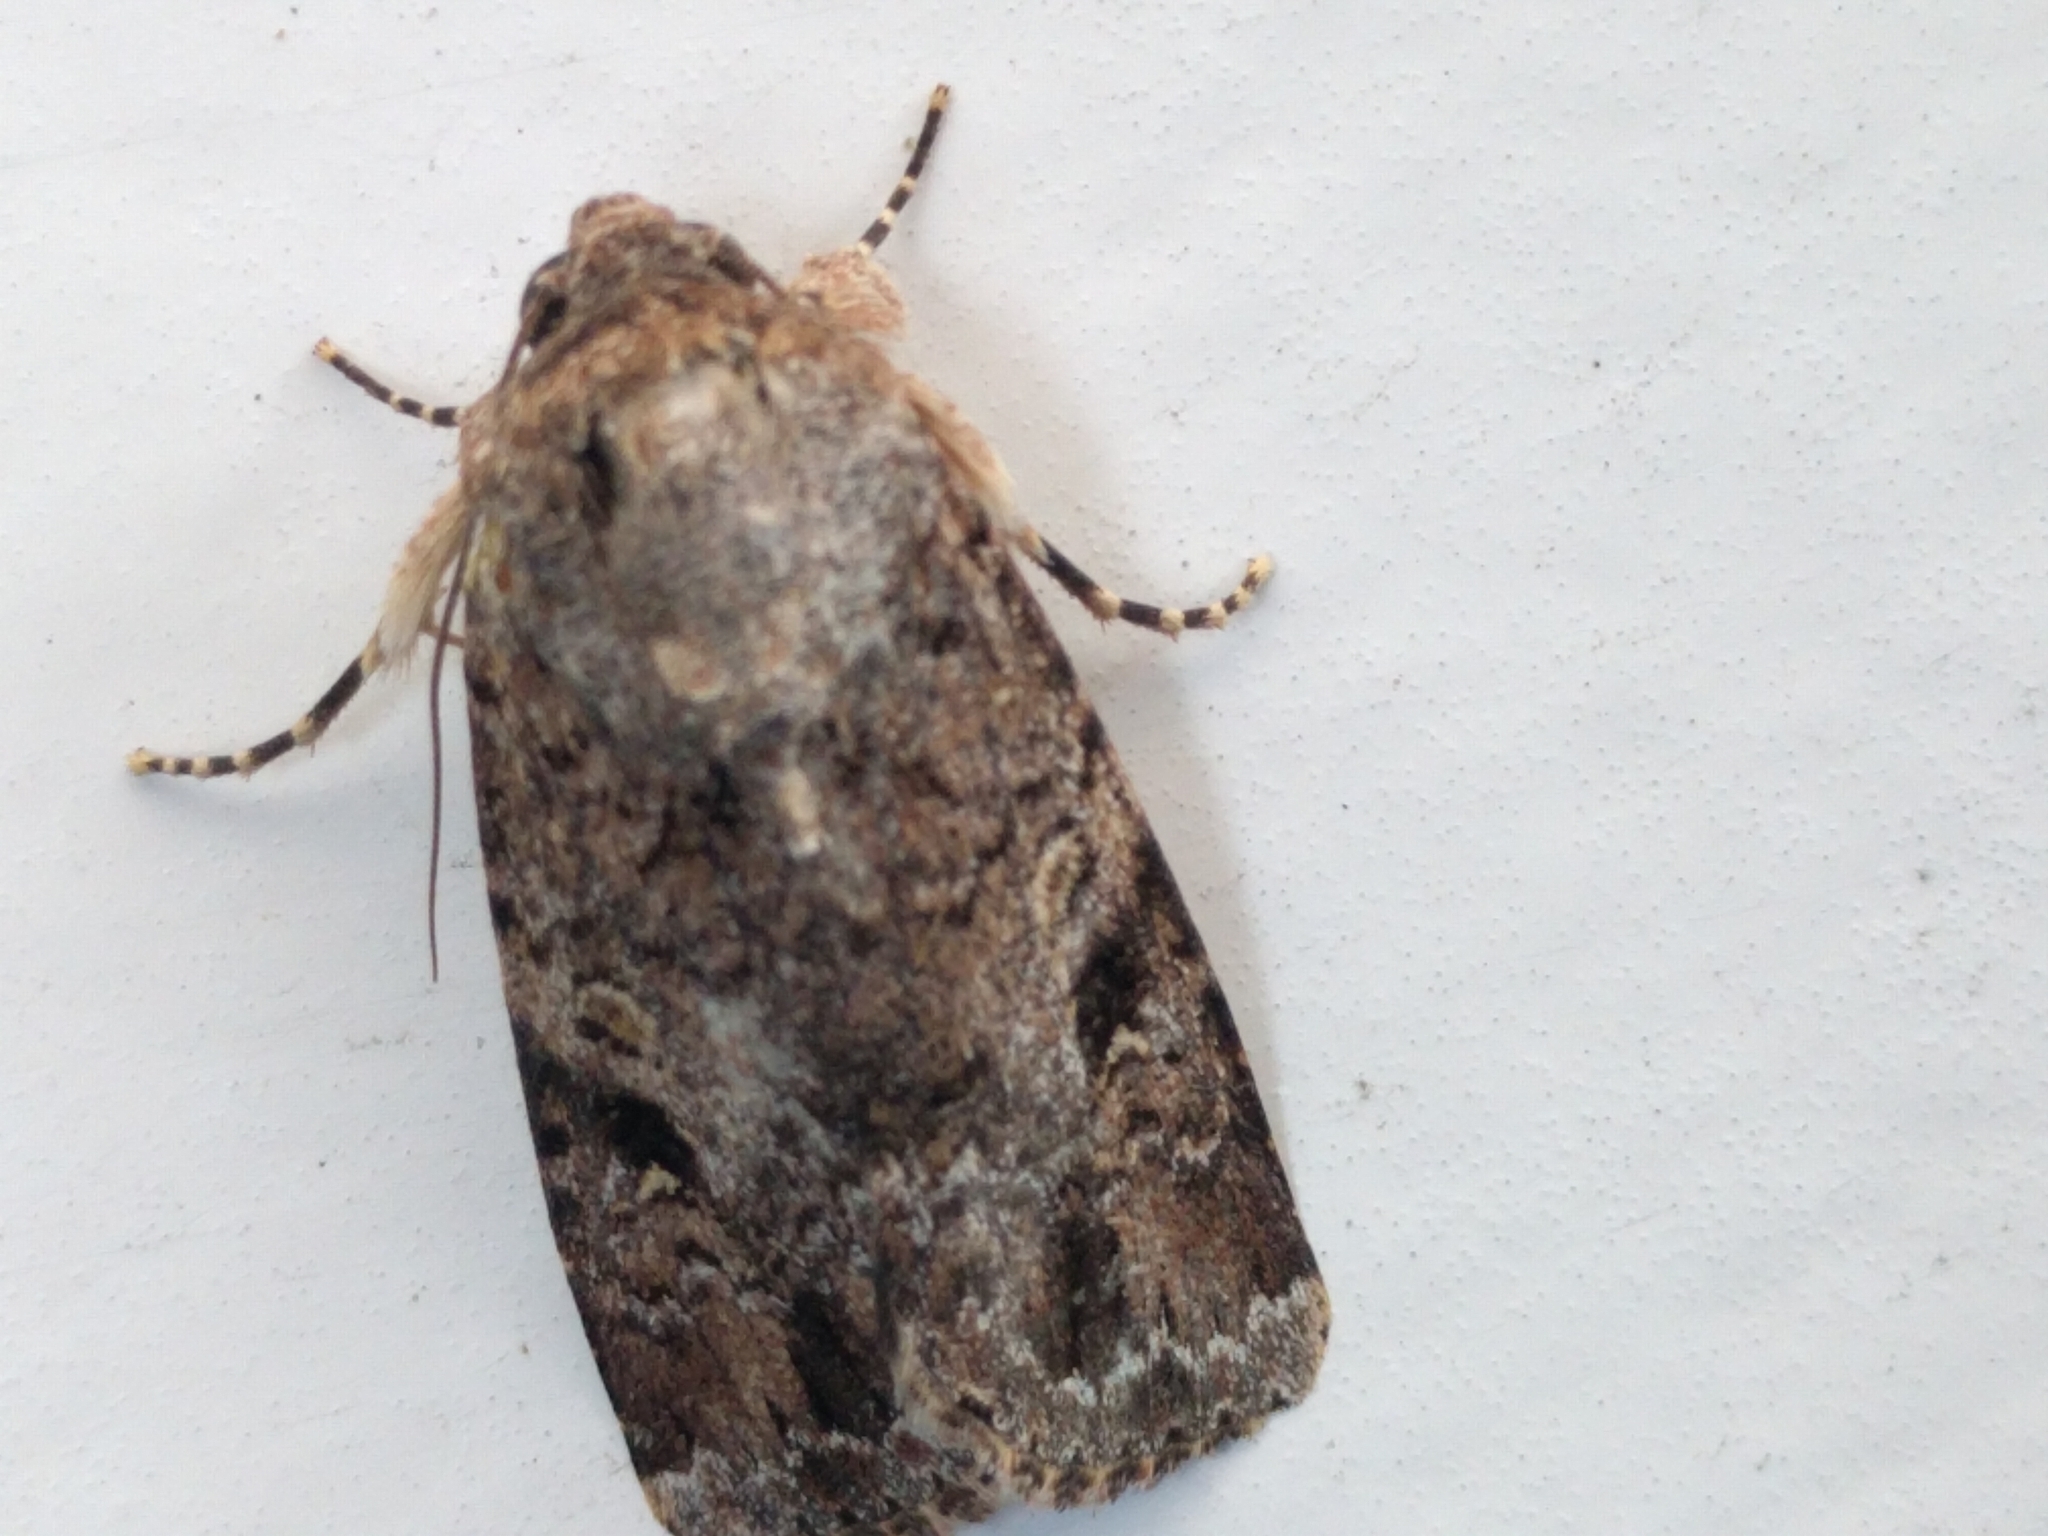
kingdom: Animalia
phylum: Arthropoda
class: Insecta
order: Lepidoptera
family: Noctuidae
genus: Spodoptera
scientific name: Spodoptera mauritia
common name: Lawn armyworm
